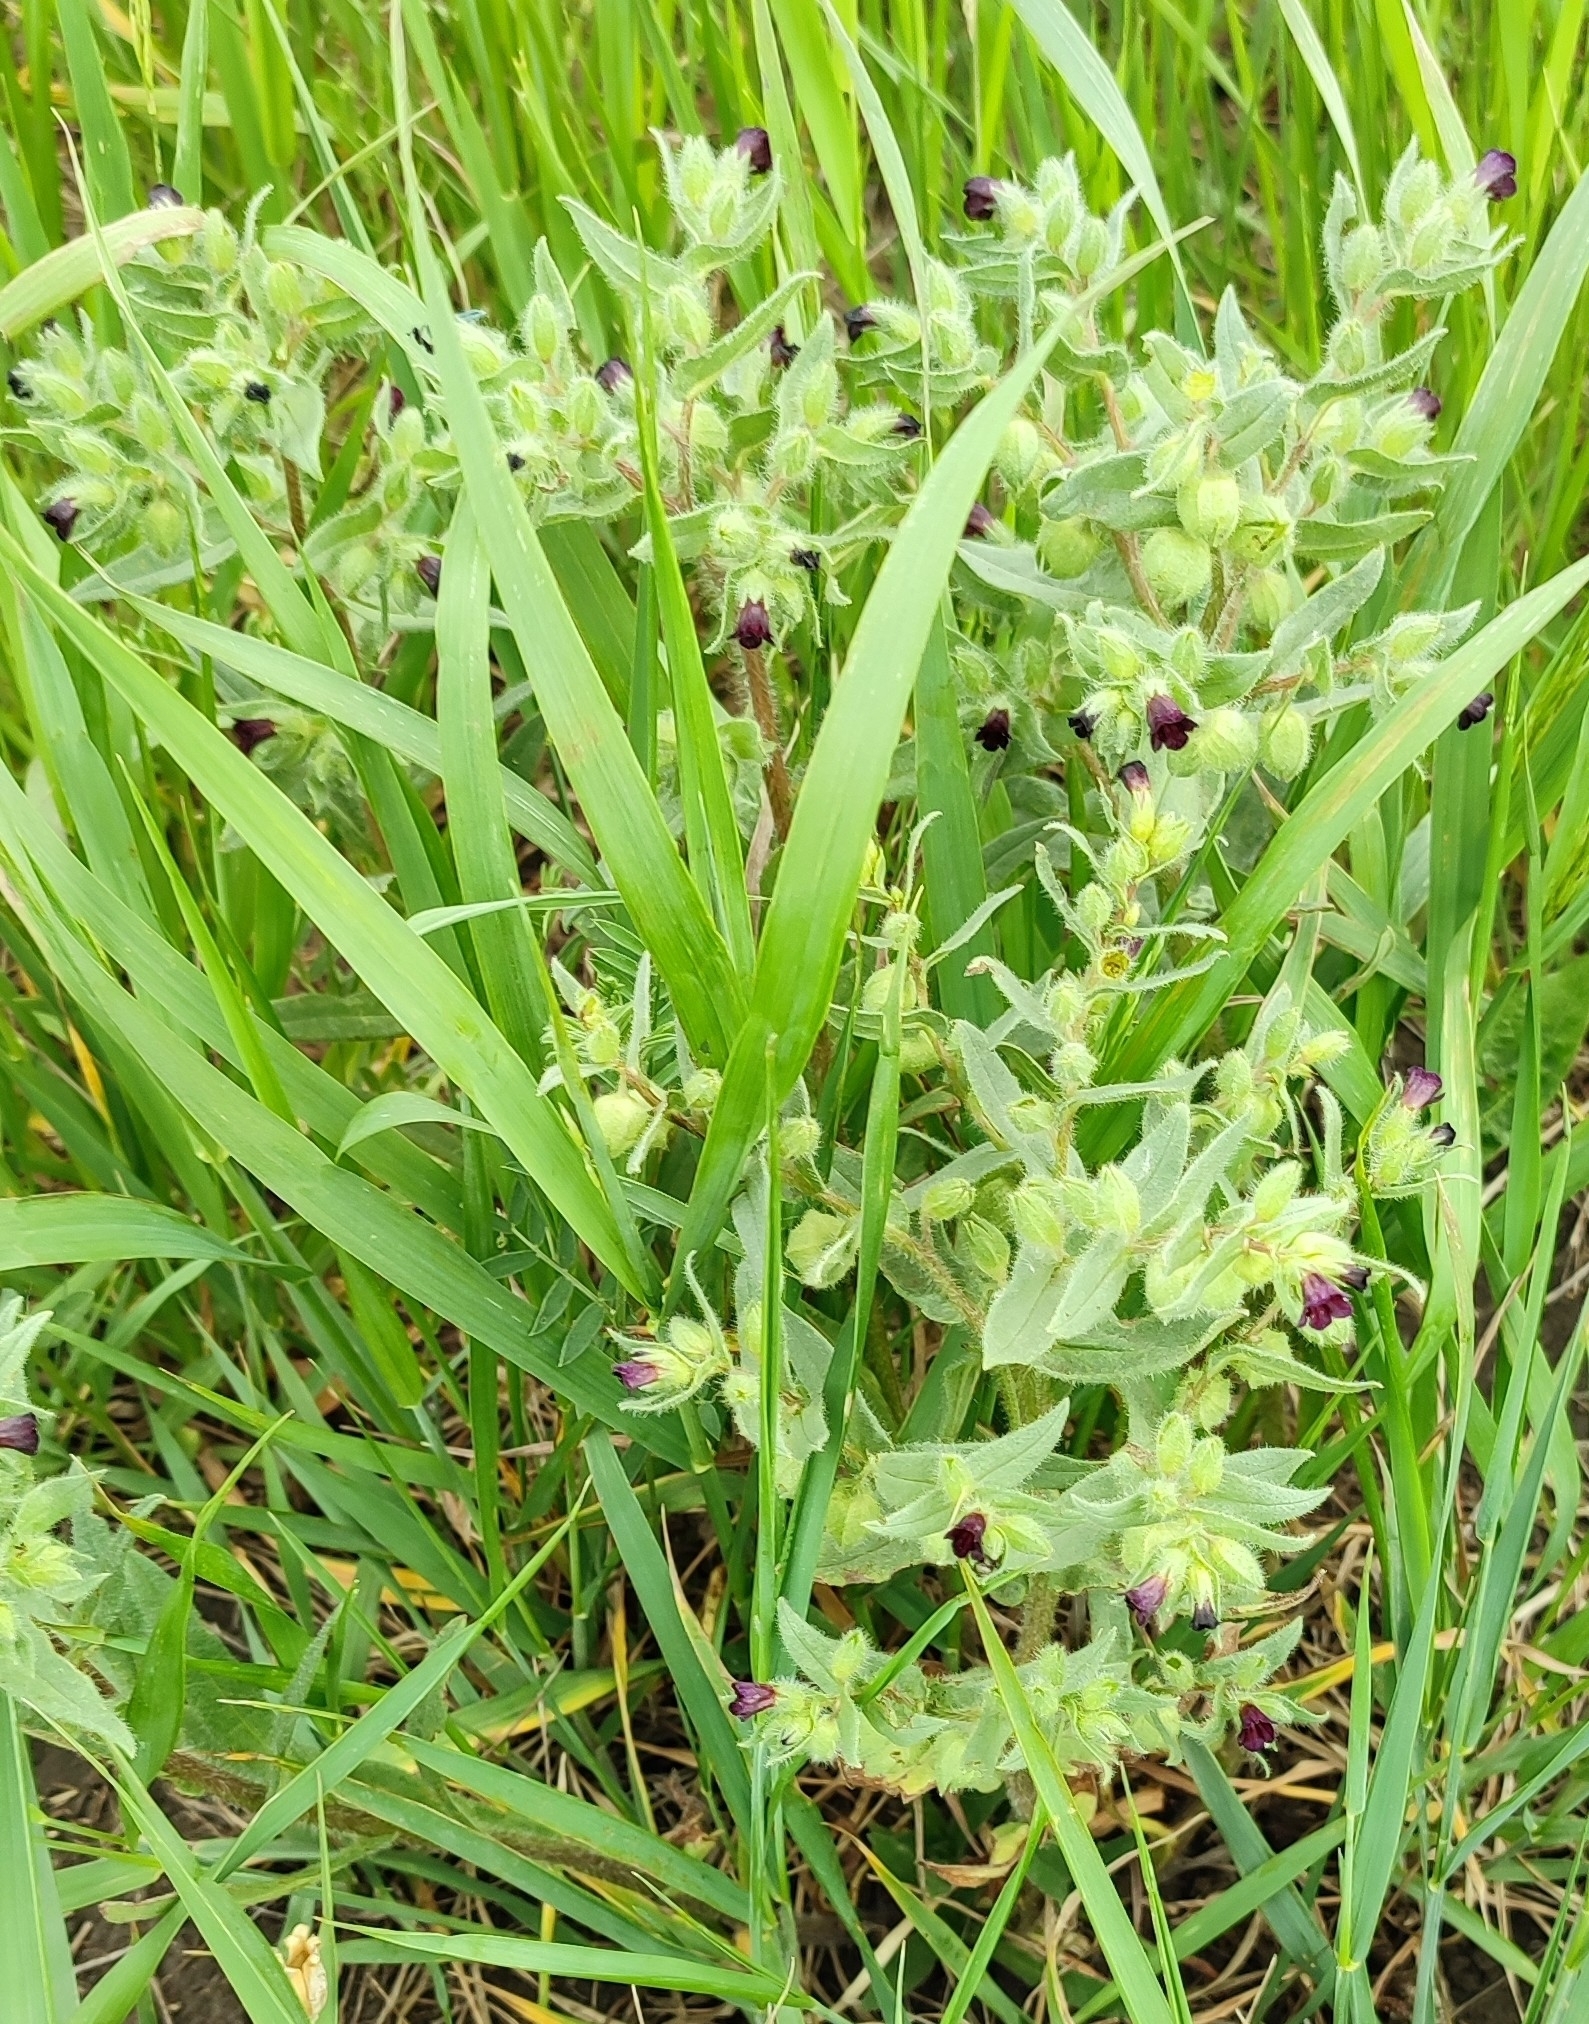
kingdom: Plantae
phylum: Tracheophyta
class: Magnoliopsida
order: Boraginales
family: Boraginaceae
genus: Nonea
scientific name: Nonea pulla
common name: Brown nonea
